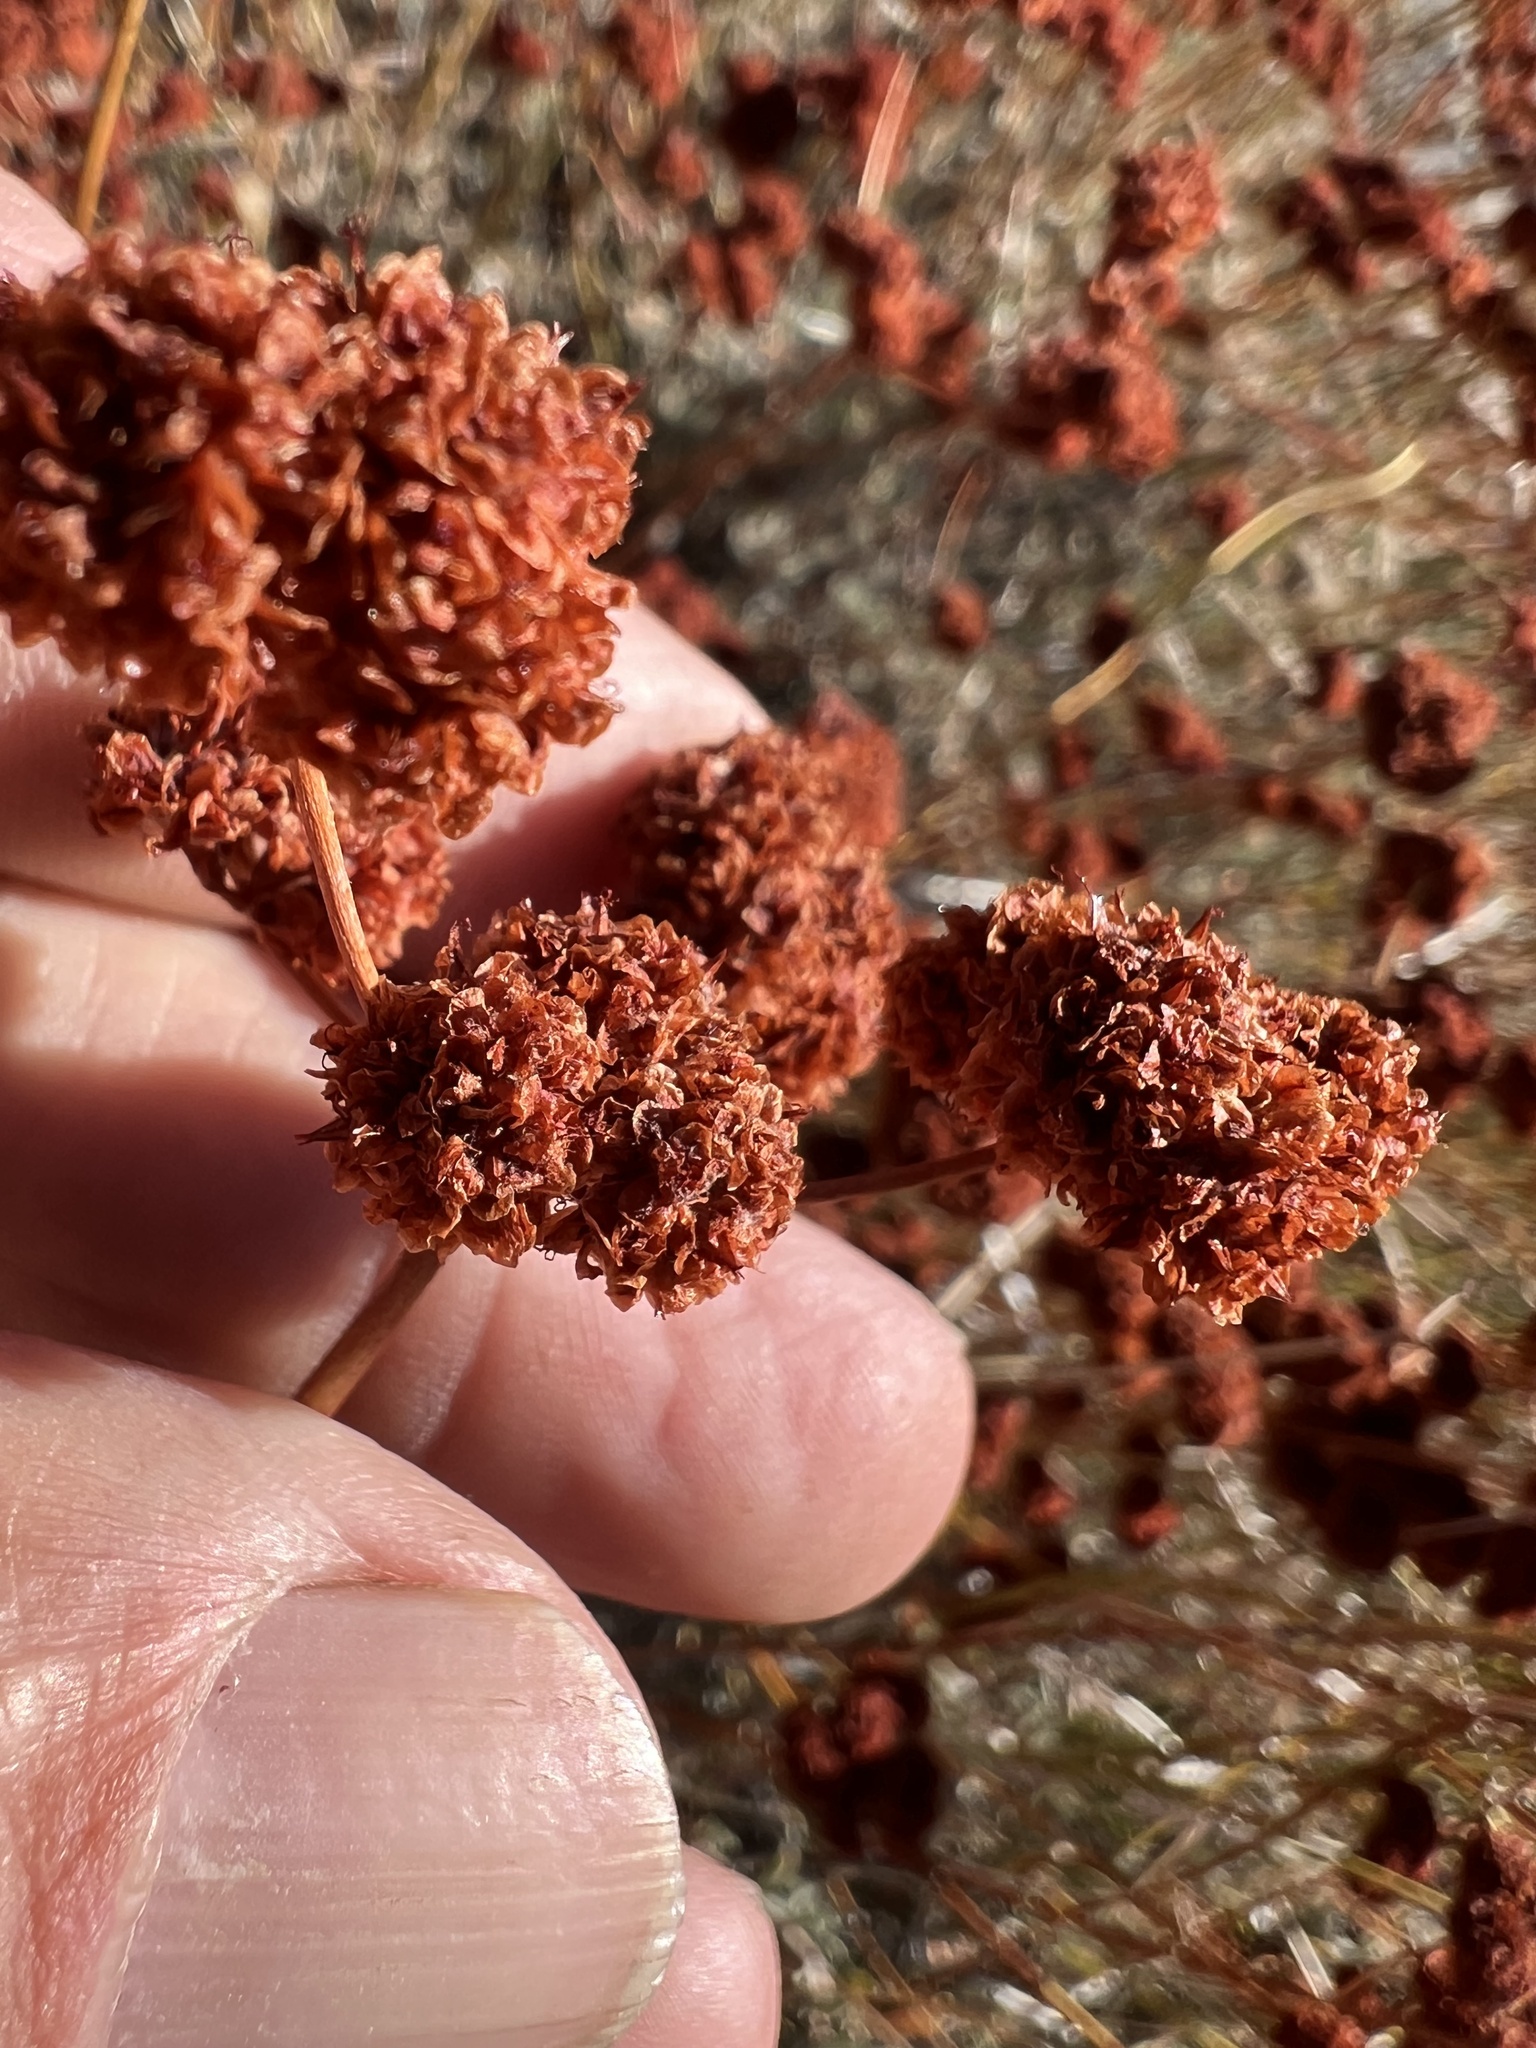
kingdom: Plantae
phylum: Tracheophyta
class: Magnoliopsida
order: Caryophyllales
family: Polygonaceae
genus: Eriogonum
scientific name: Eriogonum fasciculatum
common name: California wild buckwheat
